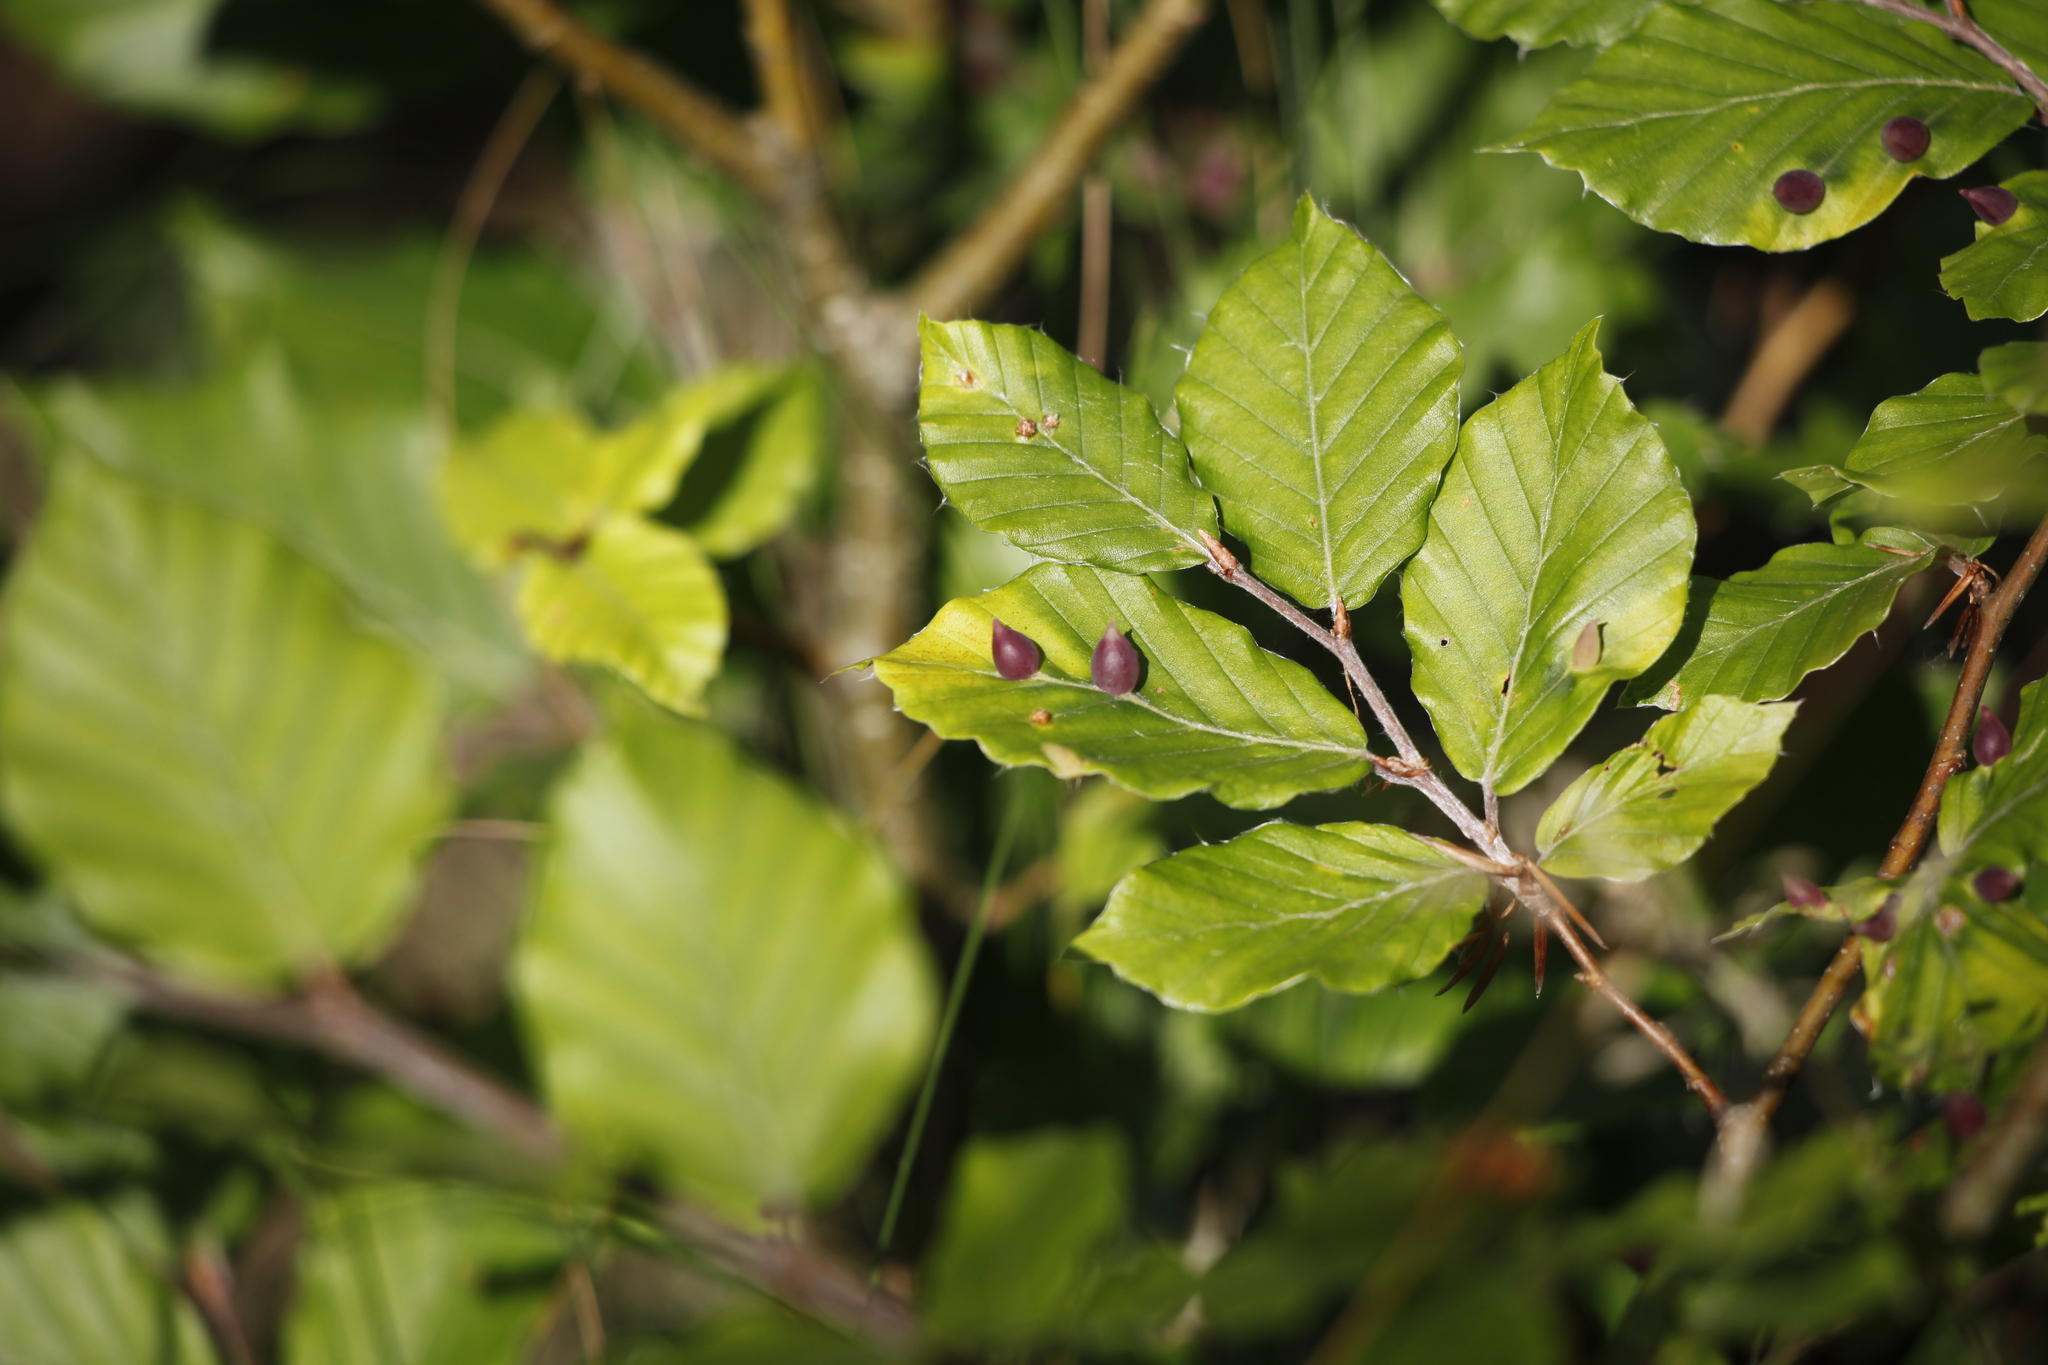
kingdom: Animalia
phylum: Arthropoda
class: Insecta
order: Diptera
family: Cecidomyiidae
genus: Mikiola
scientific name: Mikiola fagi
